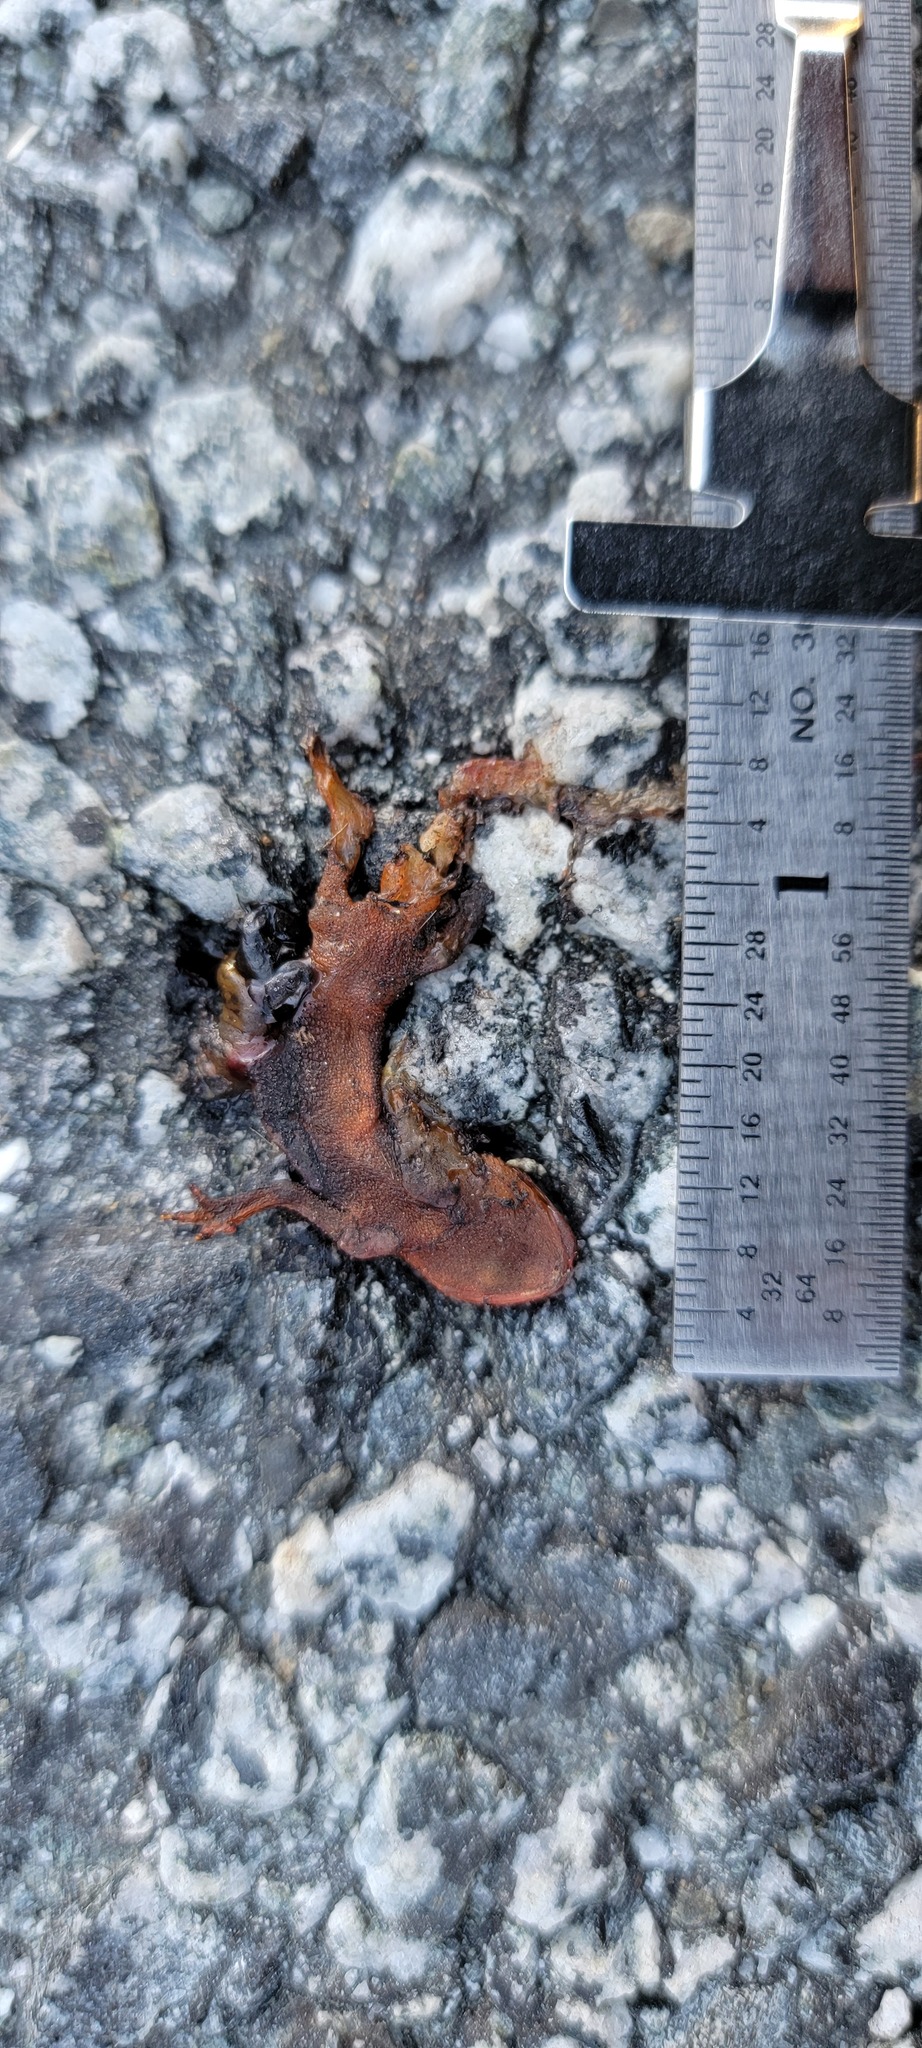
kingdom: Animalia
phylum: Chordata
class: Amphibia
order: Caudata
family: Salamandridae
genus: Taricha
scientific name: Taricha
